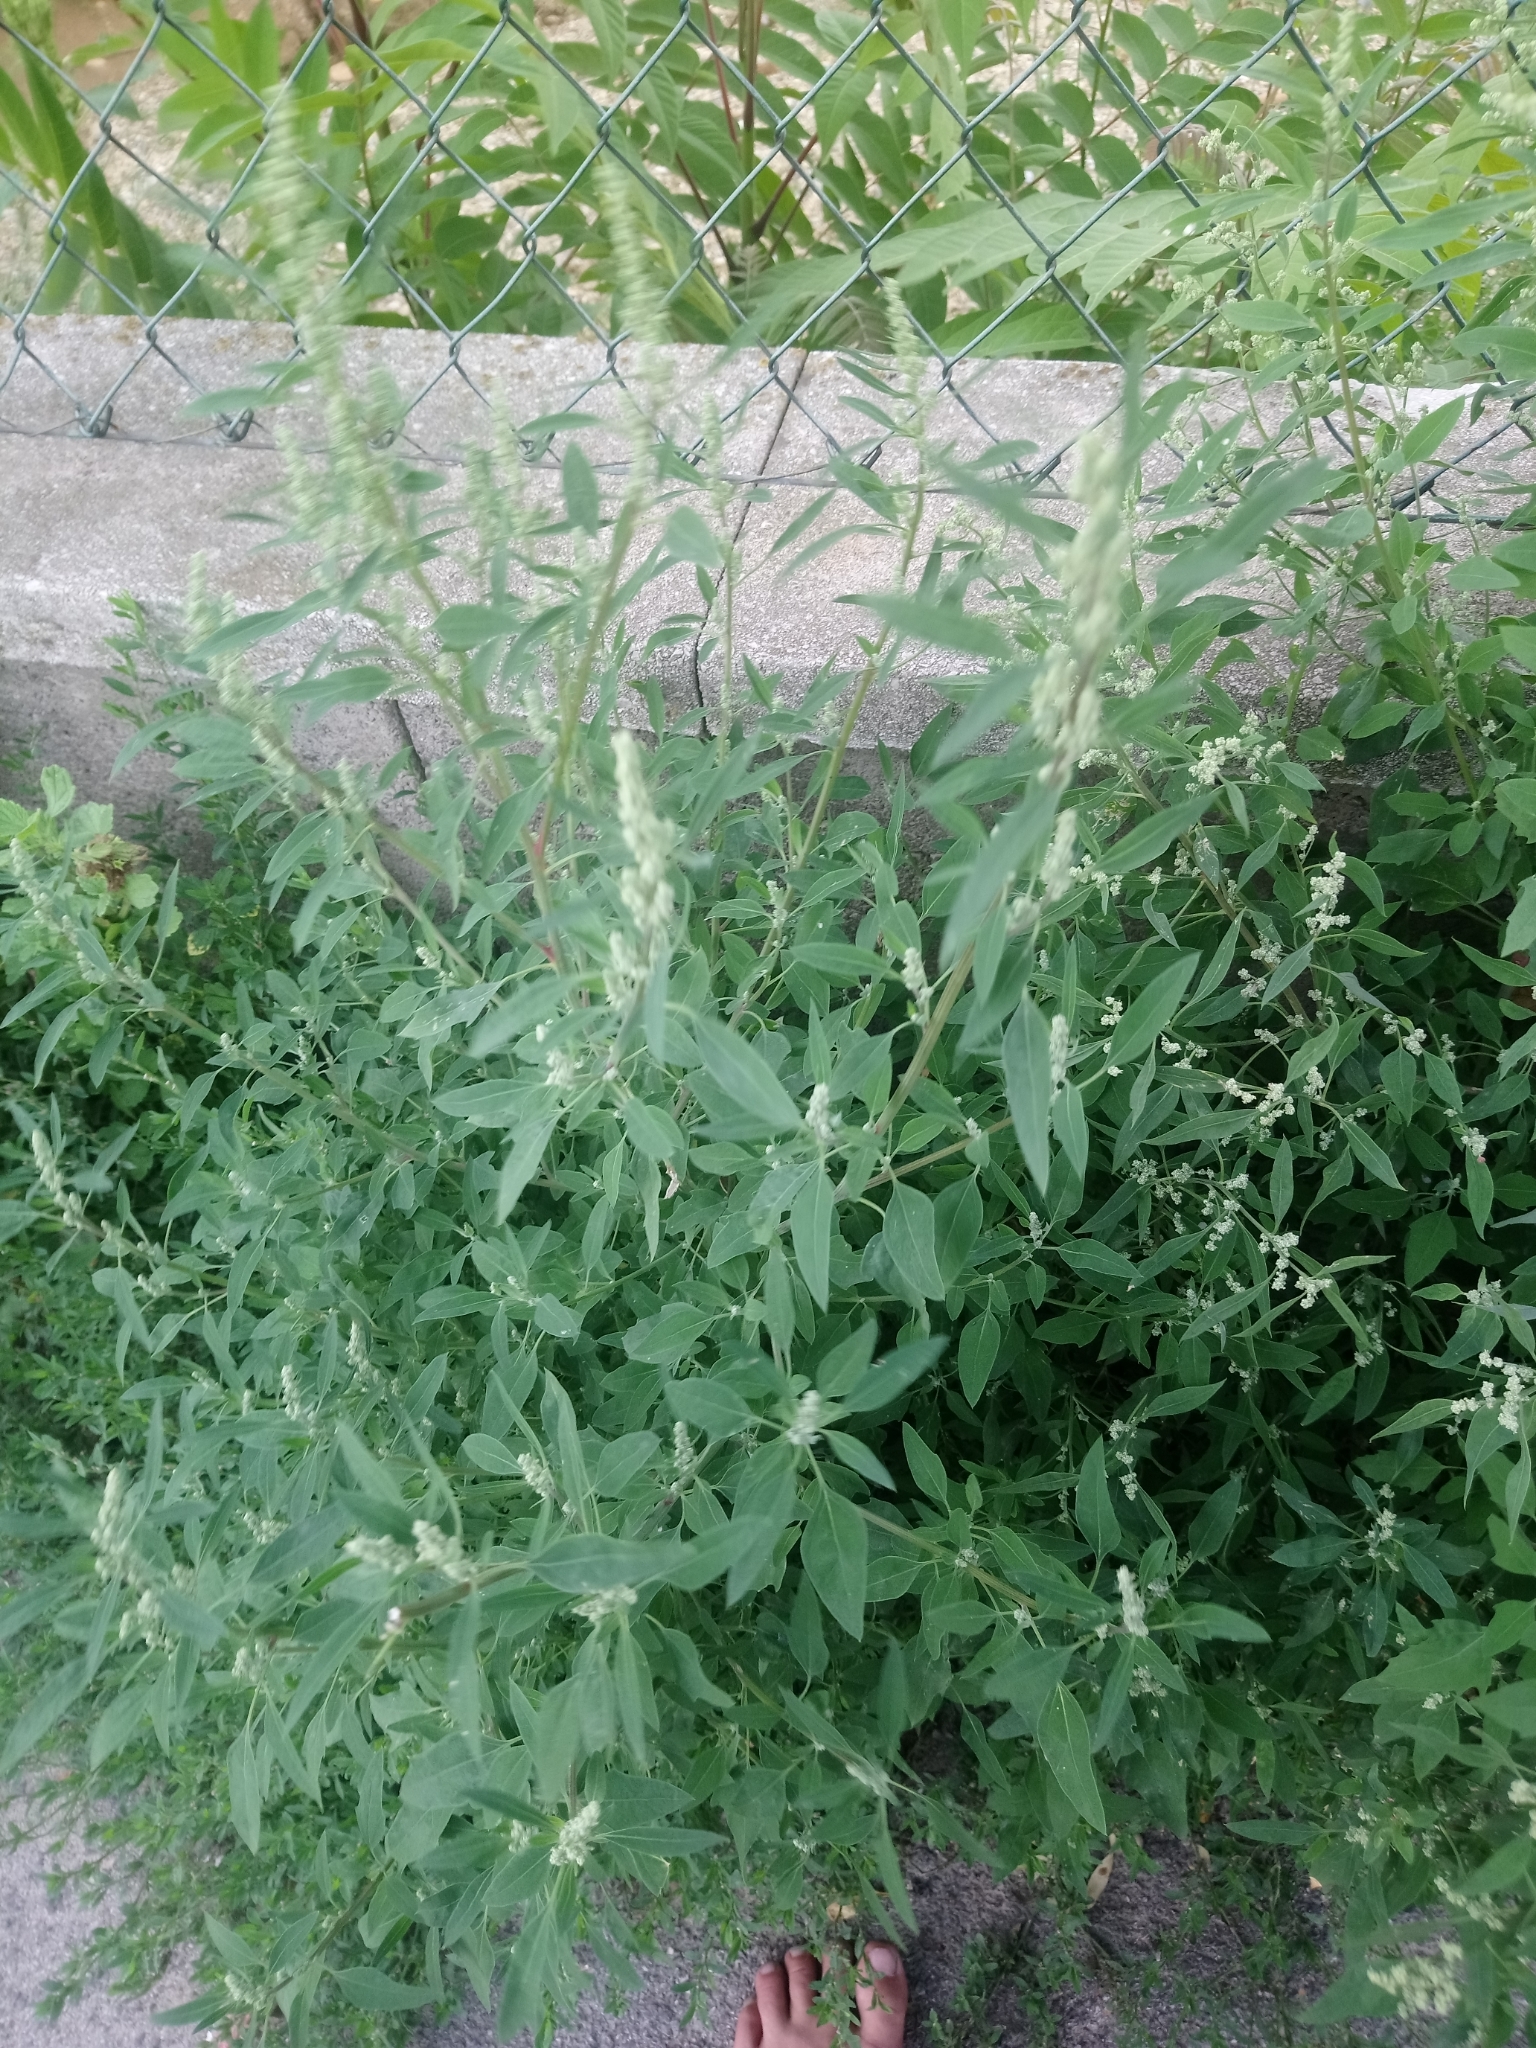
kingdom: Plantae
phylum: Tracheophyta
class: Magnoliopsida
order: Caryophyllales
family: Amaranthaceae
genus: Chenopodium
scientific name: Chenopodium album
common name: Fat-hen
